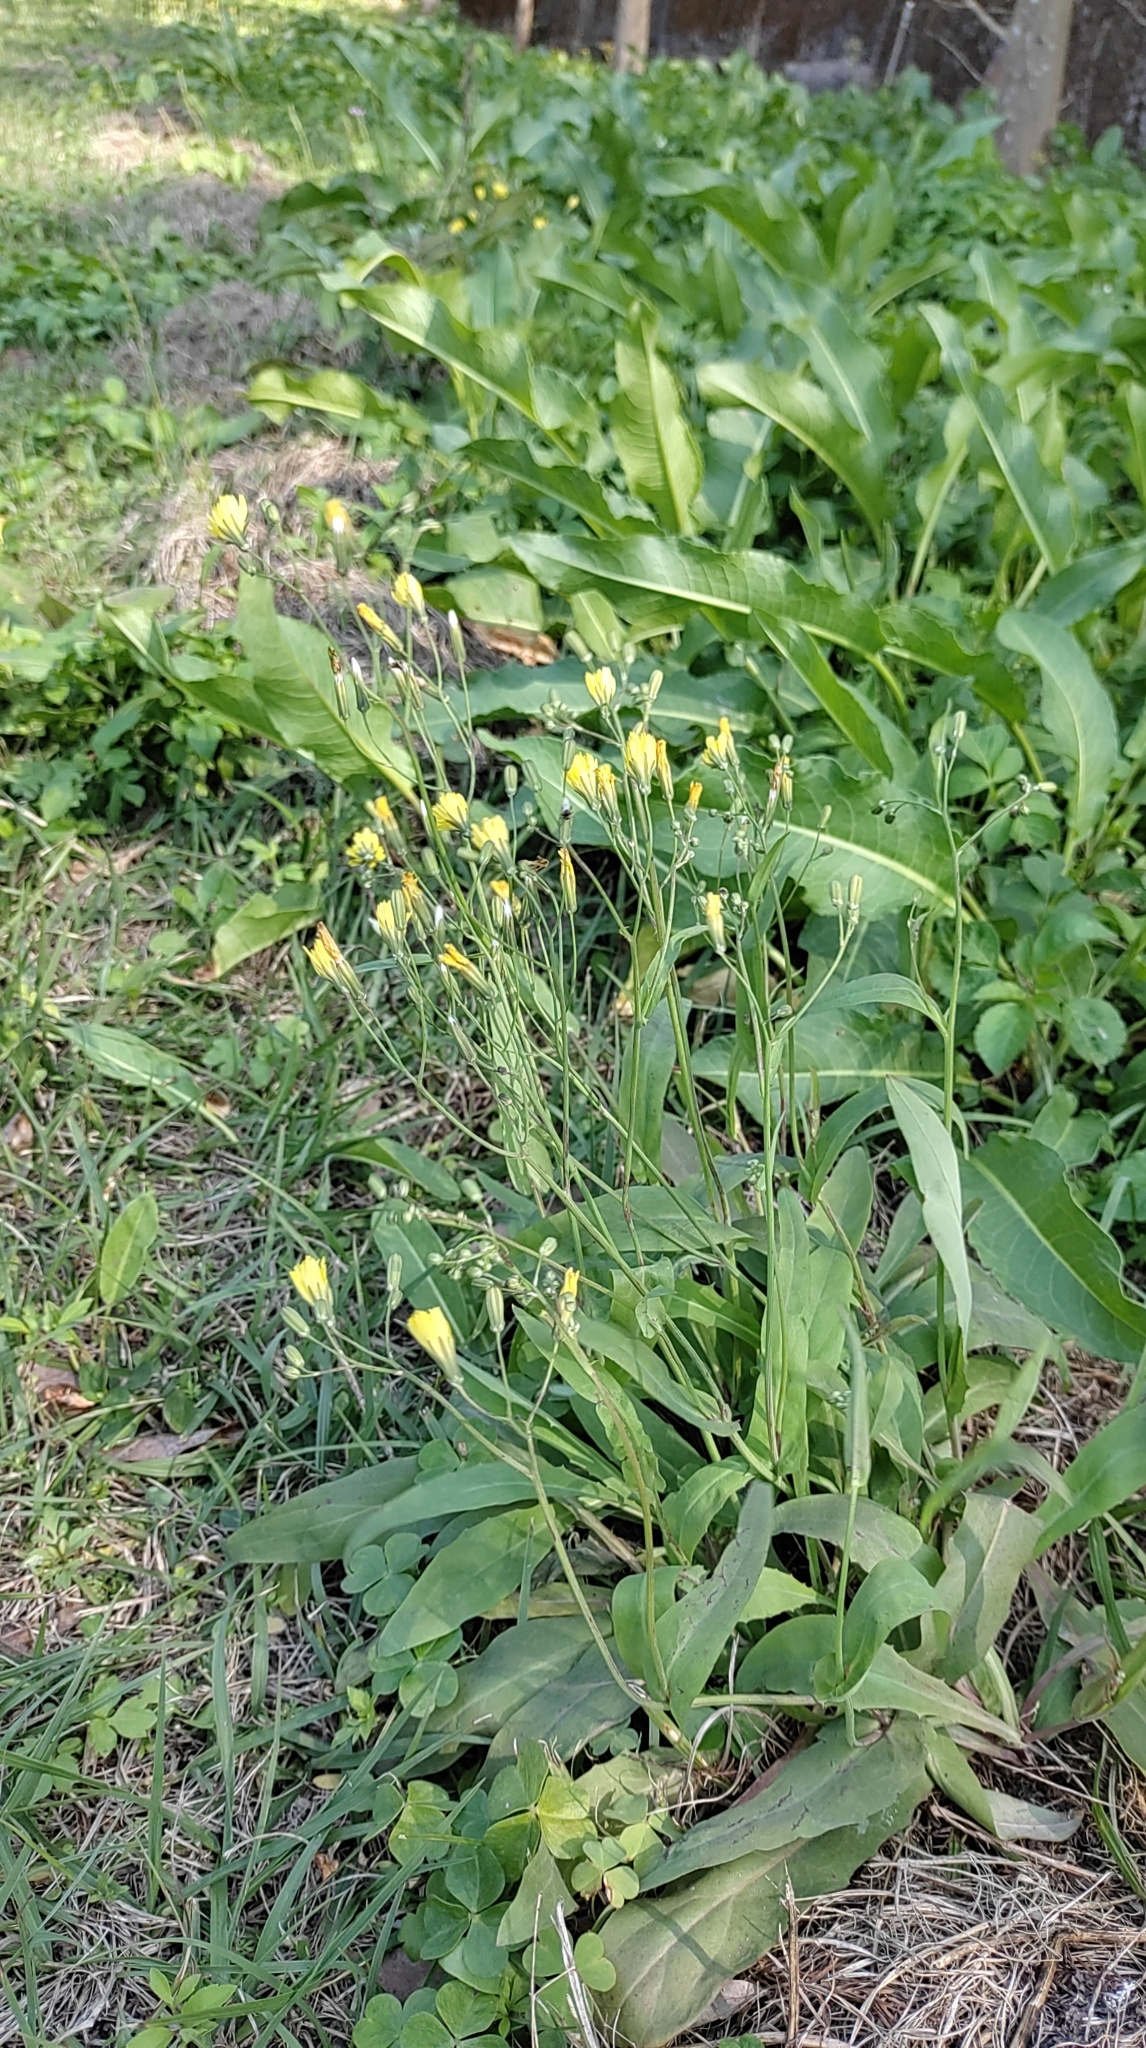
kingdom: Plantae
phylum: Tracheophyta
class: Magnoliopsida
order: Asterales
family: Asteraceae
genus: Ixeris
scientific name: Ixeris chinensis
